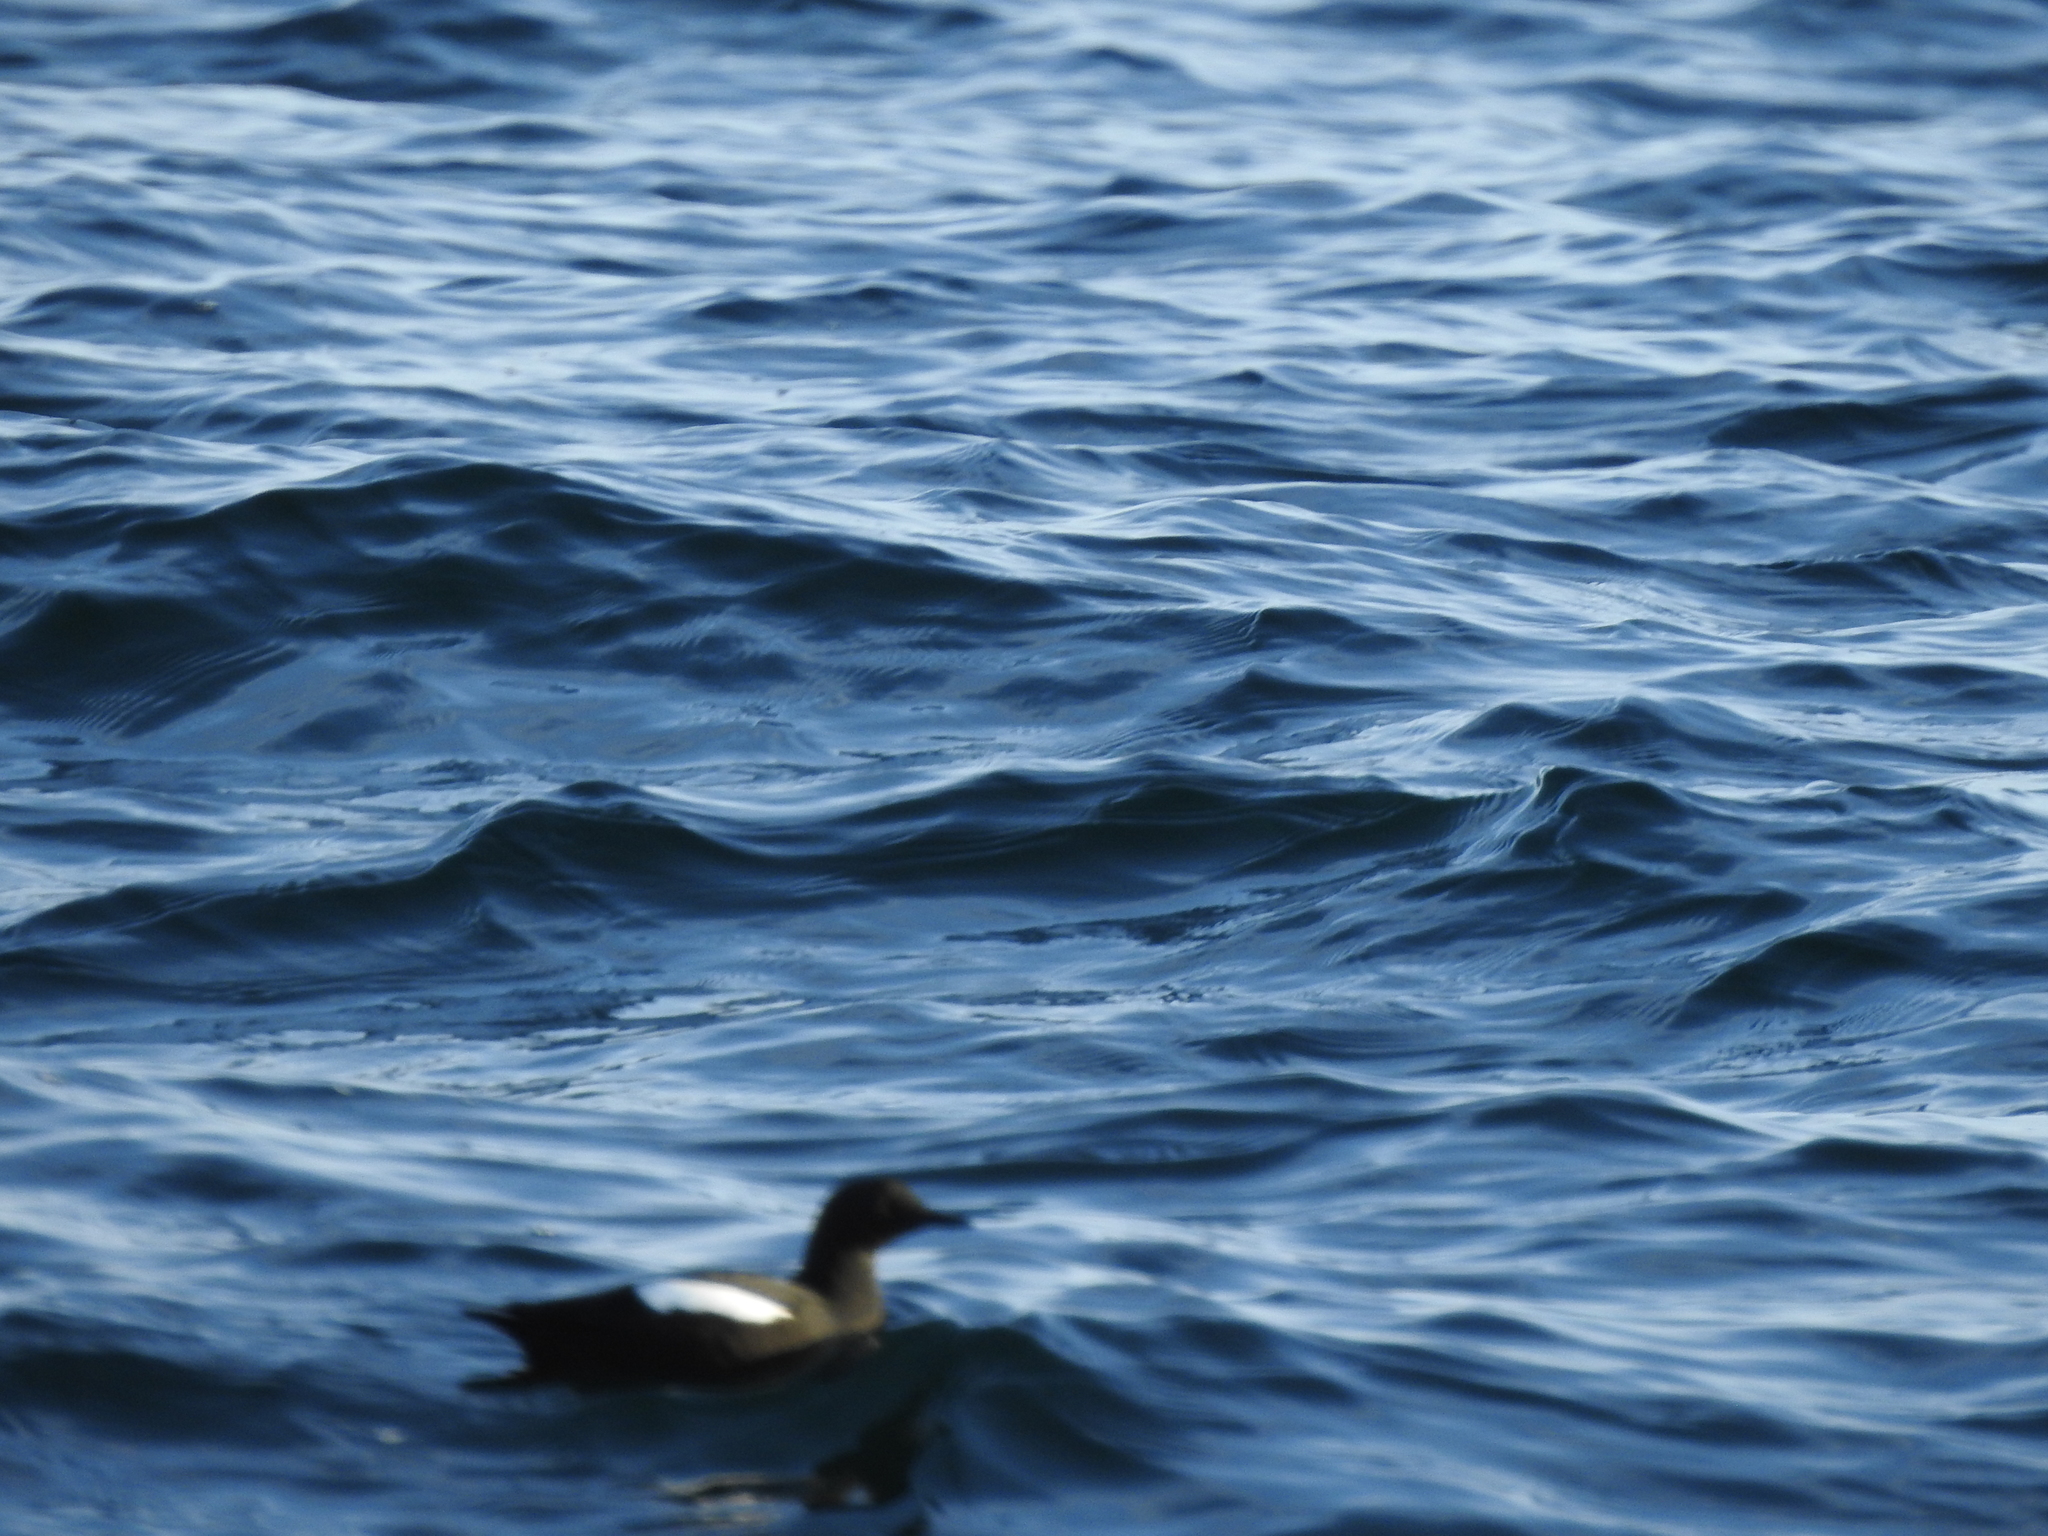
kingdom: Animalia
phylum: Chordata
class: Aves
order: Charadriiformes
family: Alcidae
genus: Cepphus
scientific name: Cepphus grylle
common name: Black guillemot
